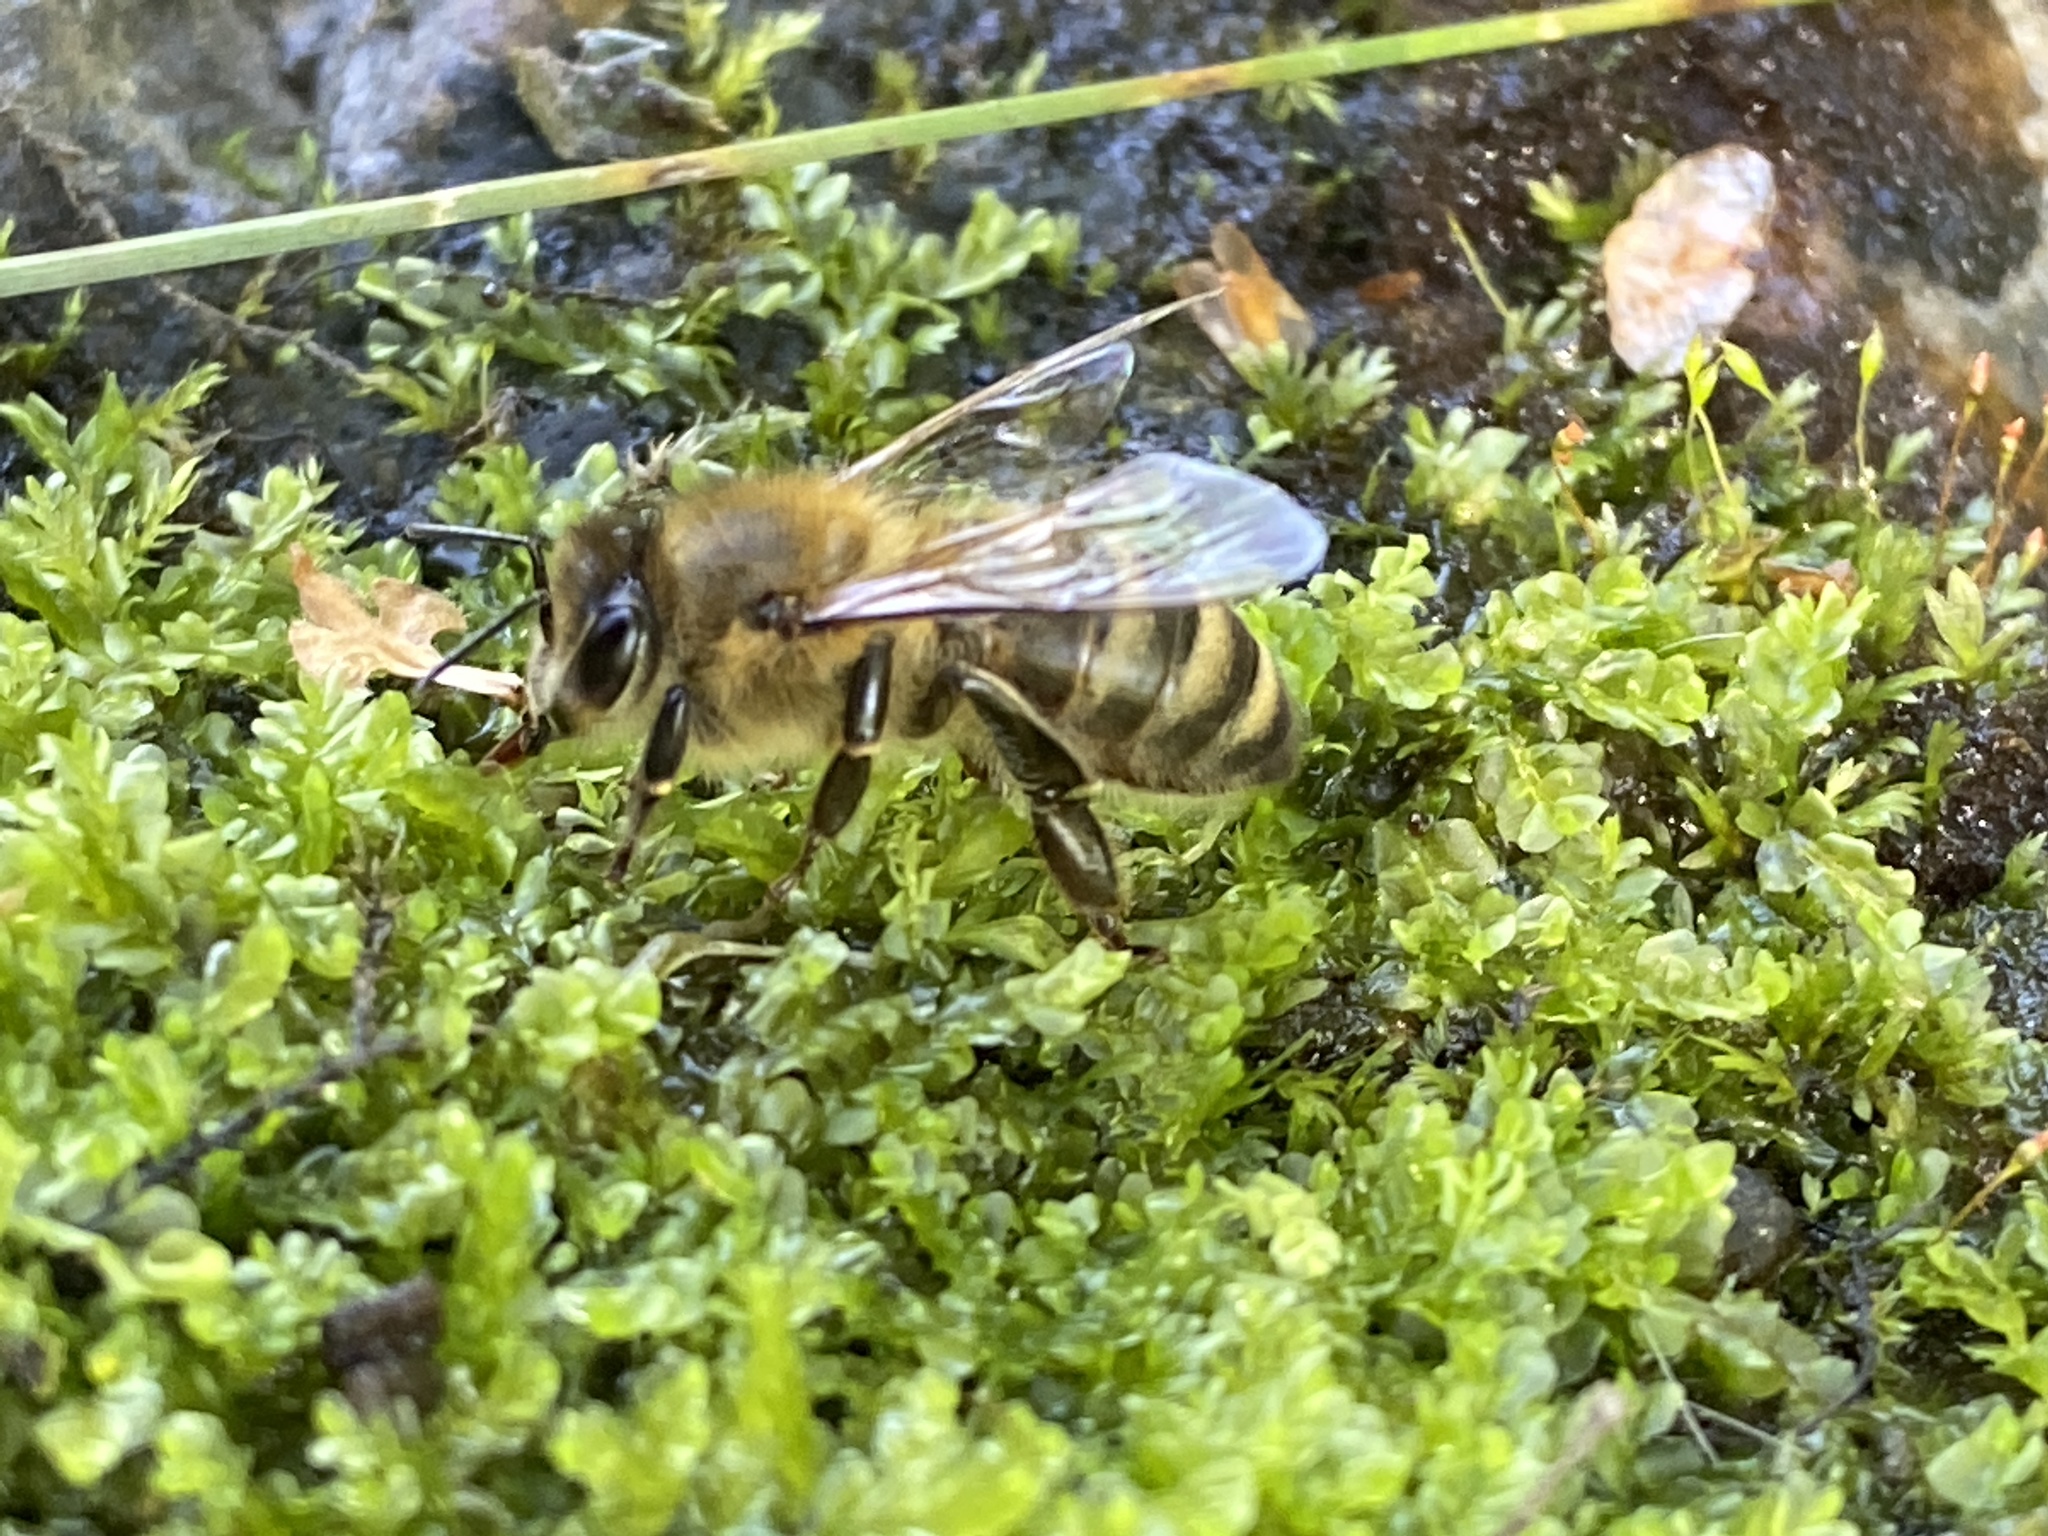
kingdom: Animalia
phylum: Arthropoda
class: Insecta
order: Hymenoptera
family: Apidae
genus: Apis
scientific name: Apis mellifera
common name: Honey bee
